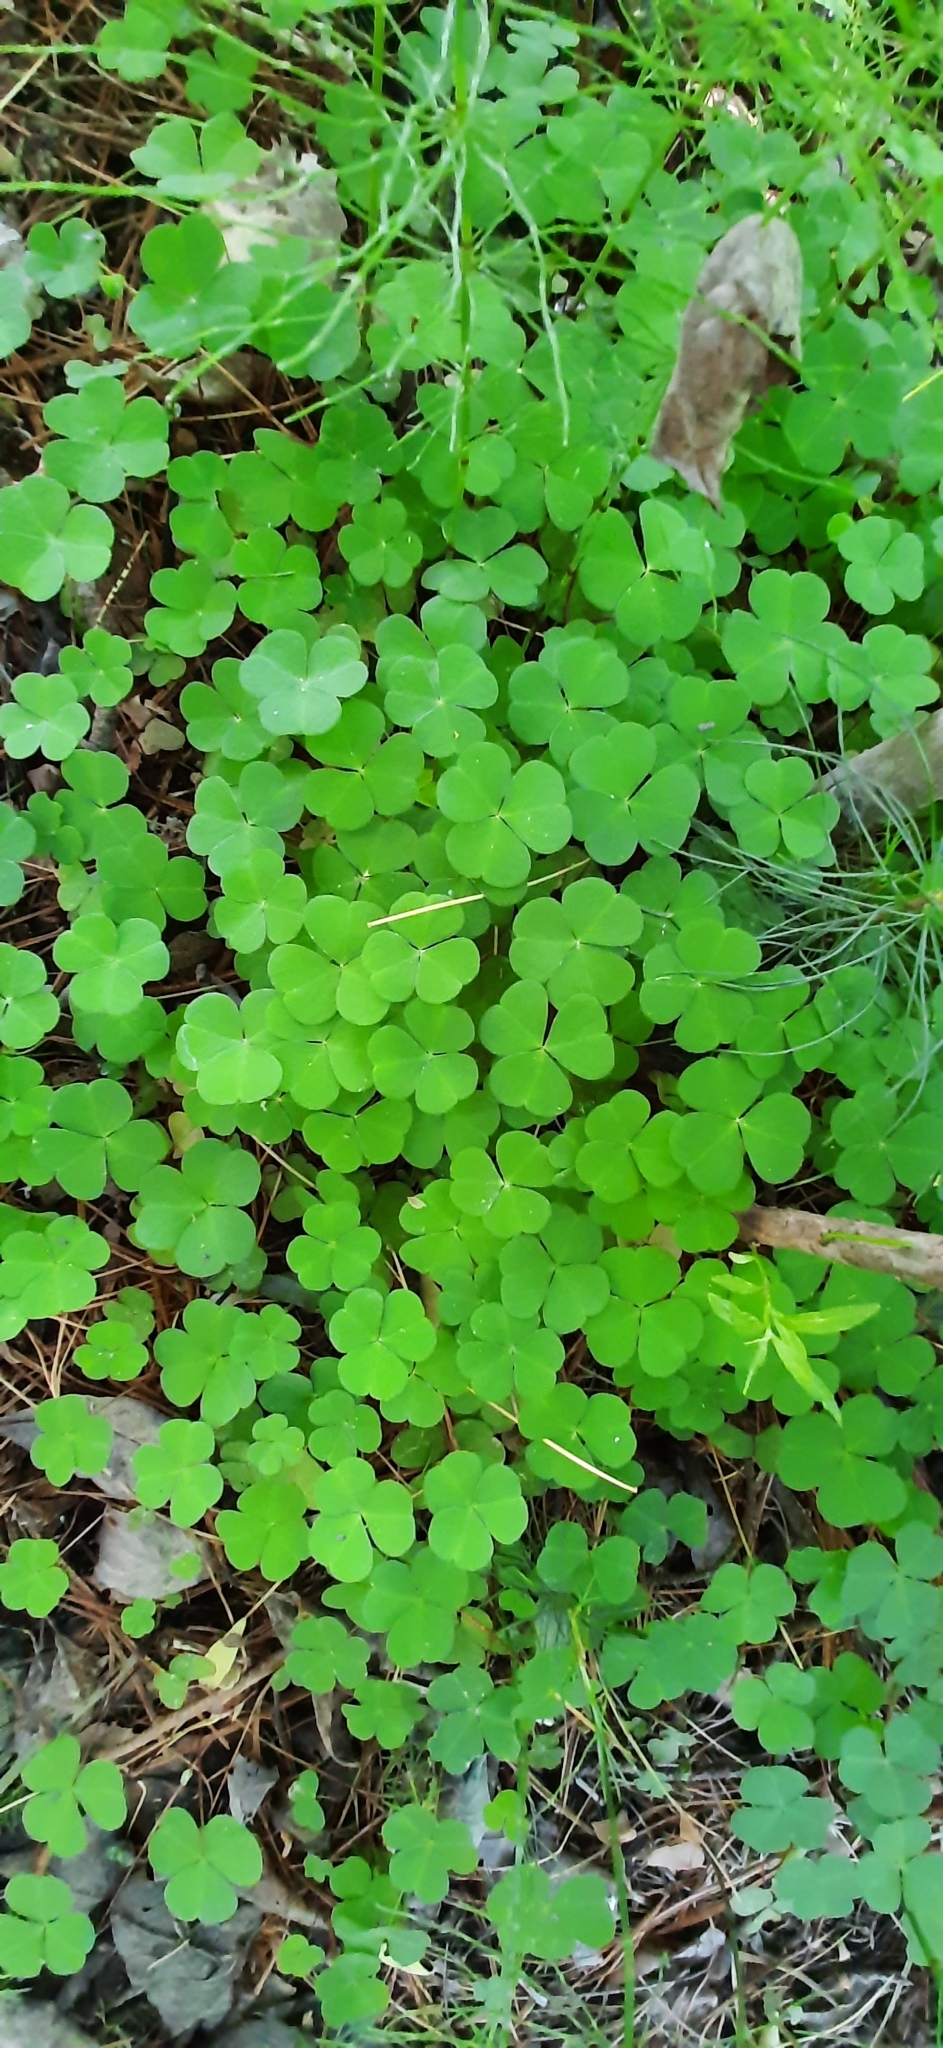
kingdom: Plantae
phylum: Tracheophyta
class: Magnoliopsida
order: Oxalidales
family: Oxalidaceae
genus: Oxalis
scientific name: Oxalis acetosella
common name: Wood-sorrel
